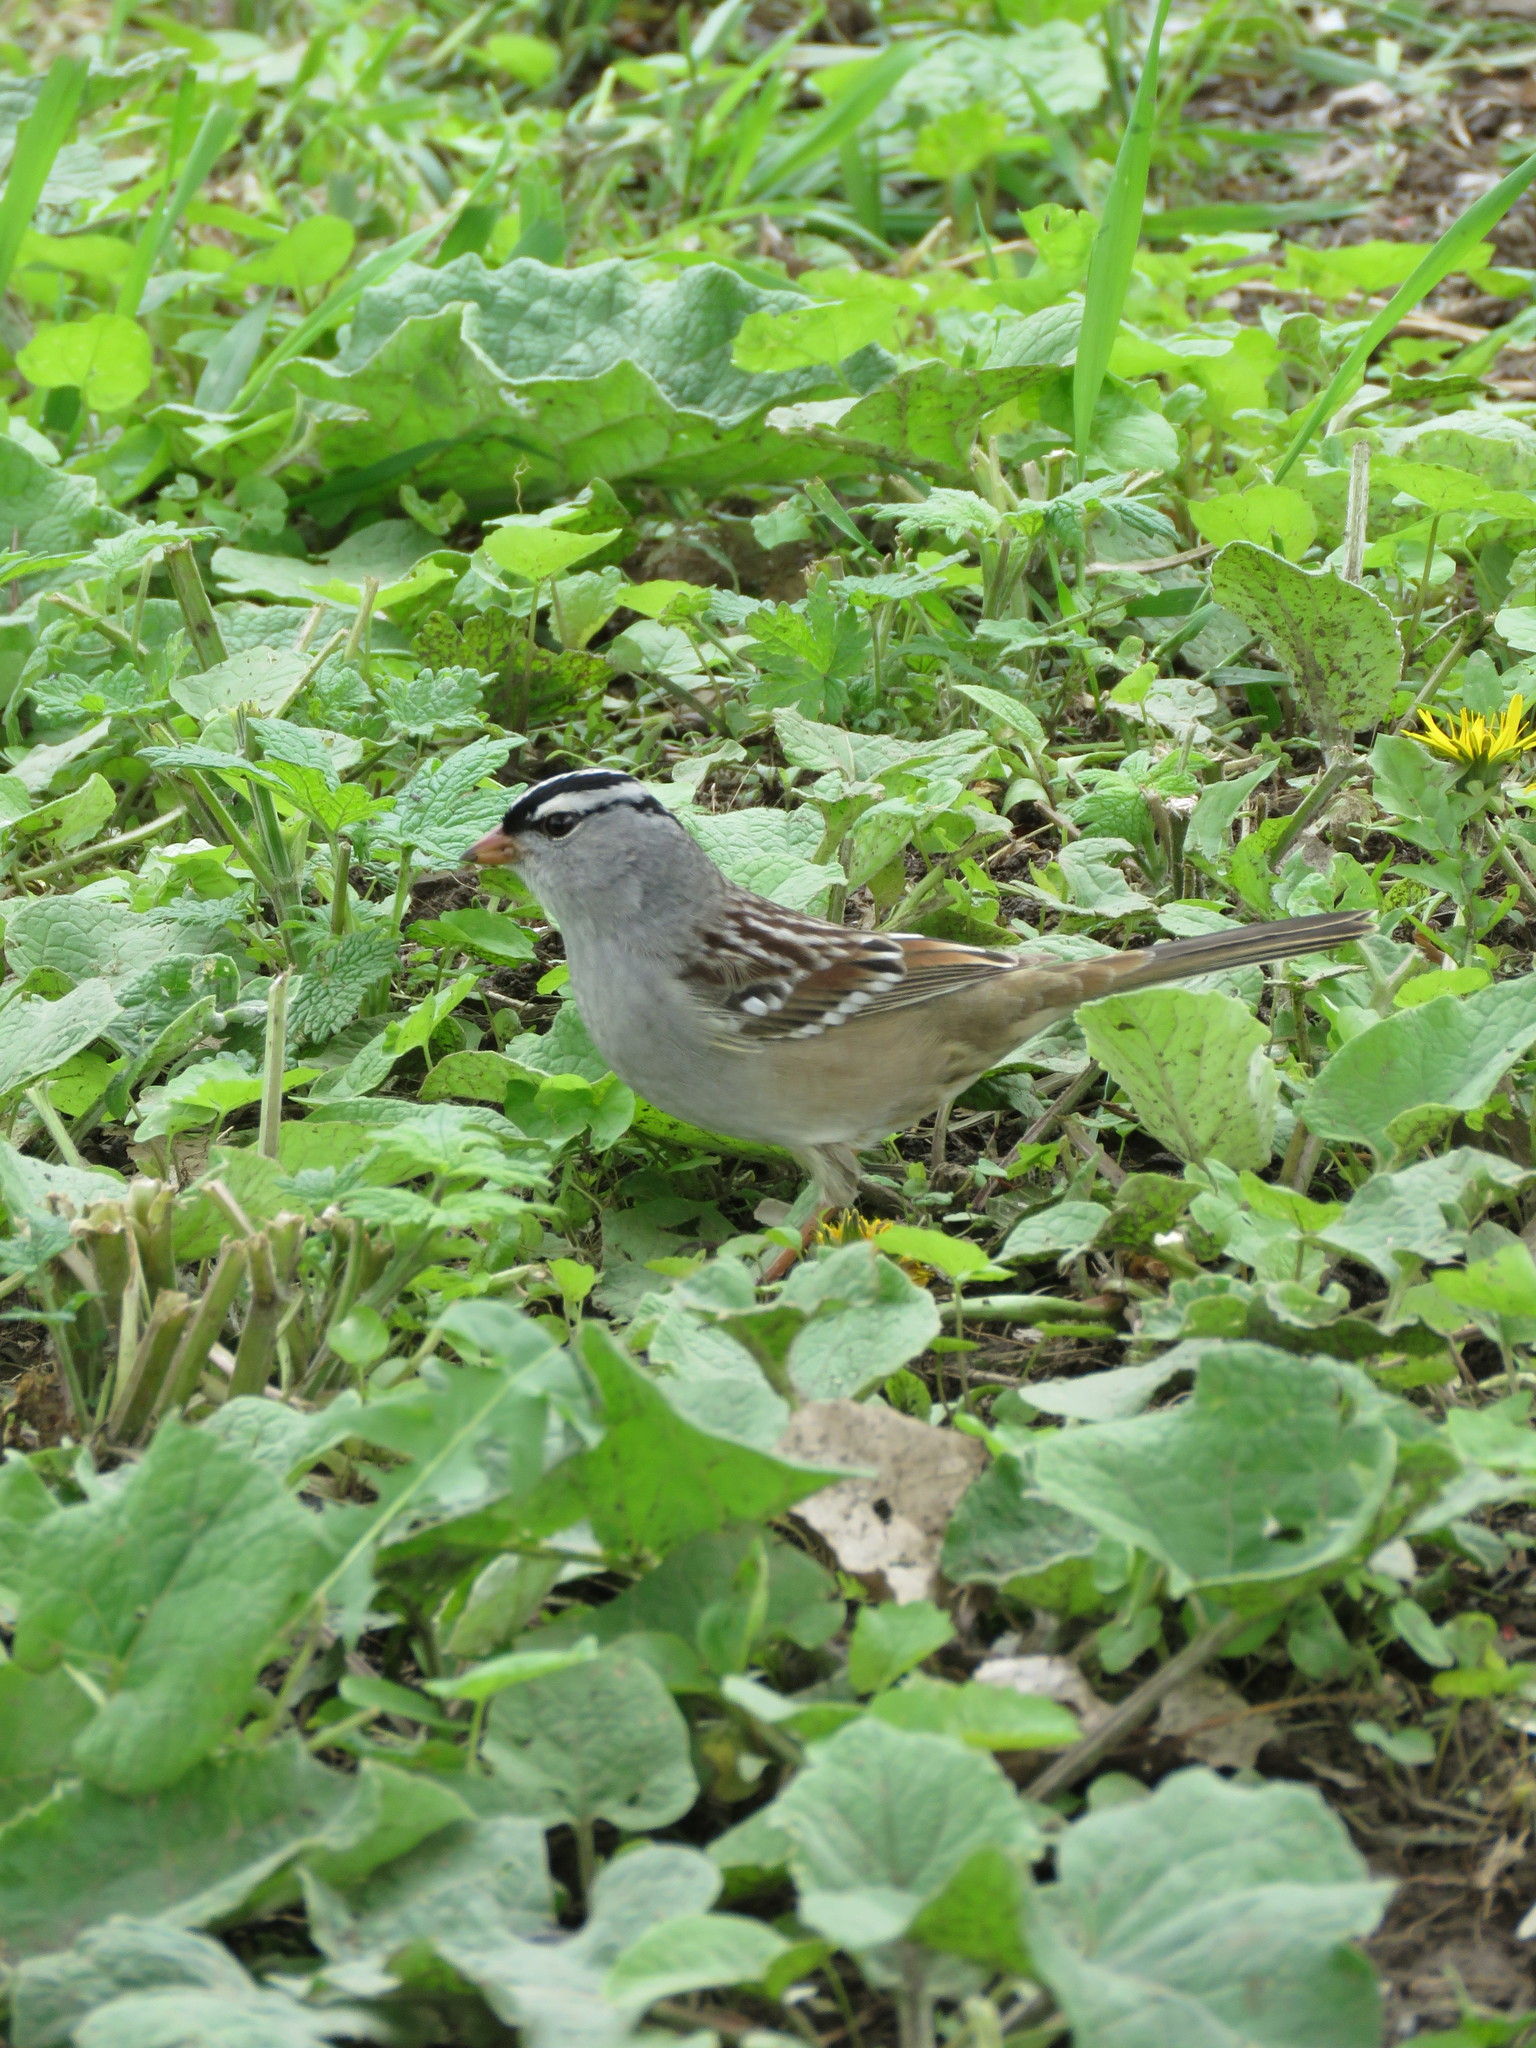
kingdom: Animalia
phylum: Chordata
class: Aves
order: Passeriformes
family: Passerellidae
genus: Zonotrichia
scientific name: Zonotrichia leucophrys
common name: White-crowned sparrow
